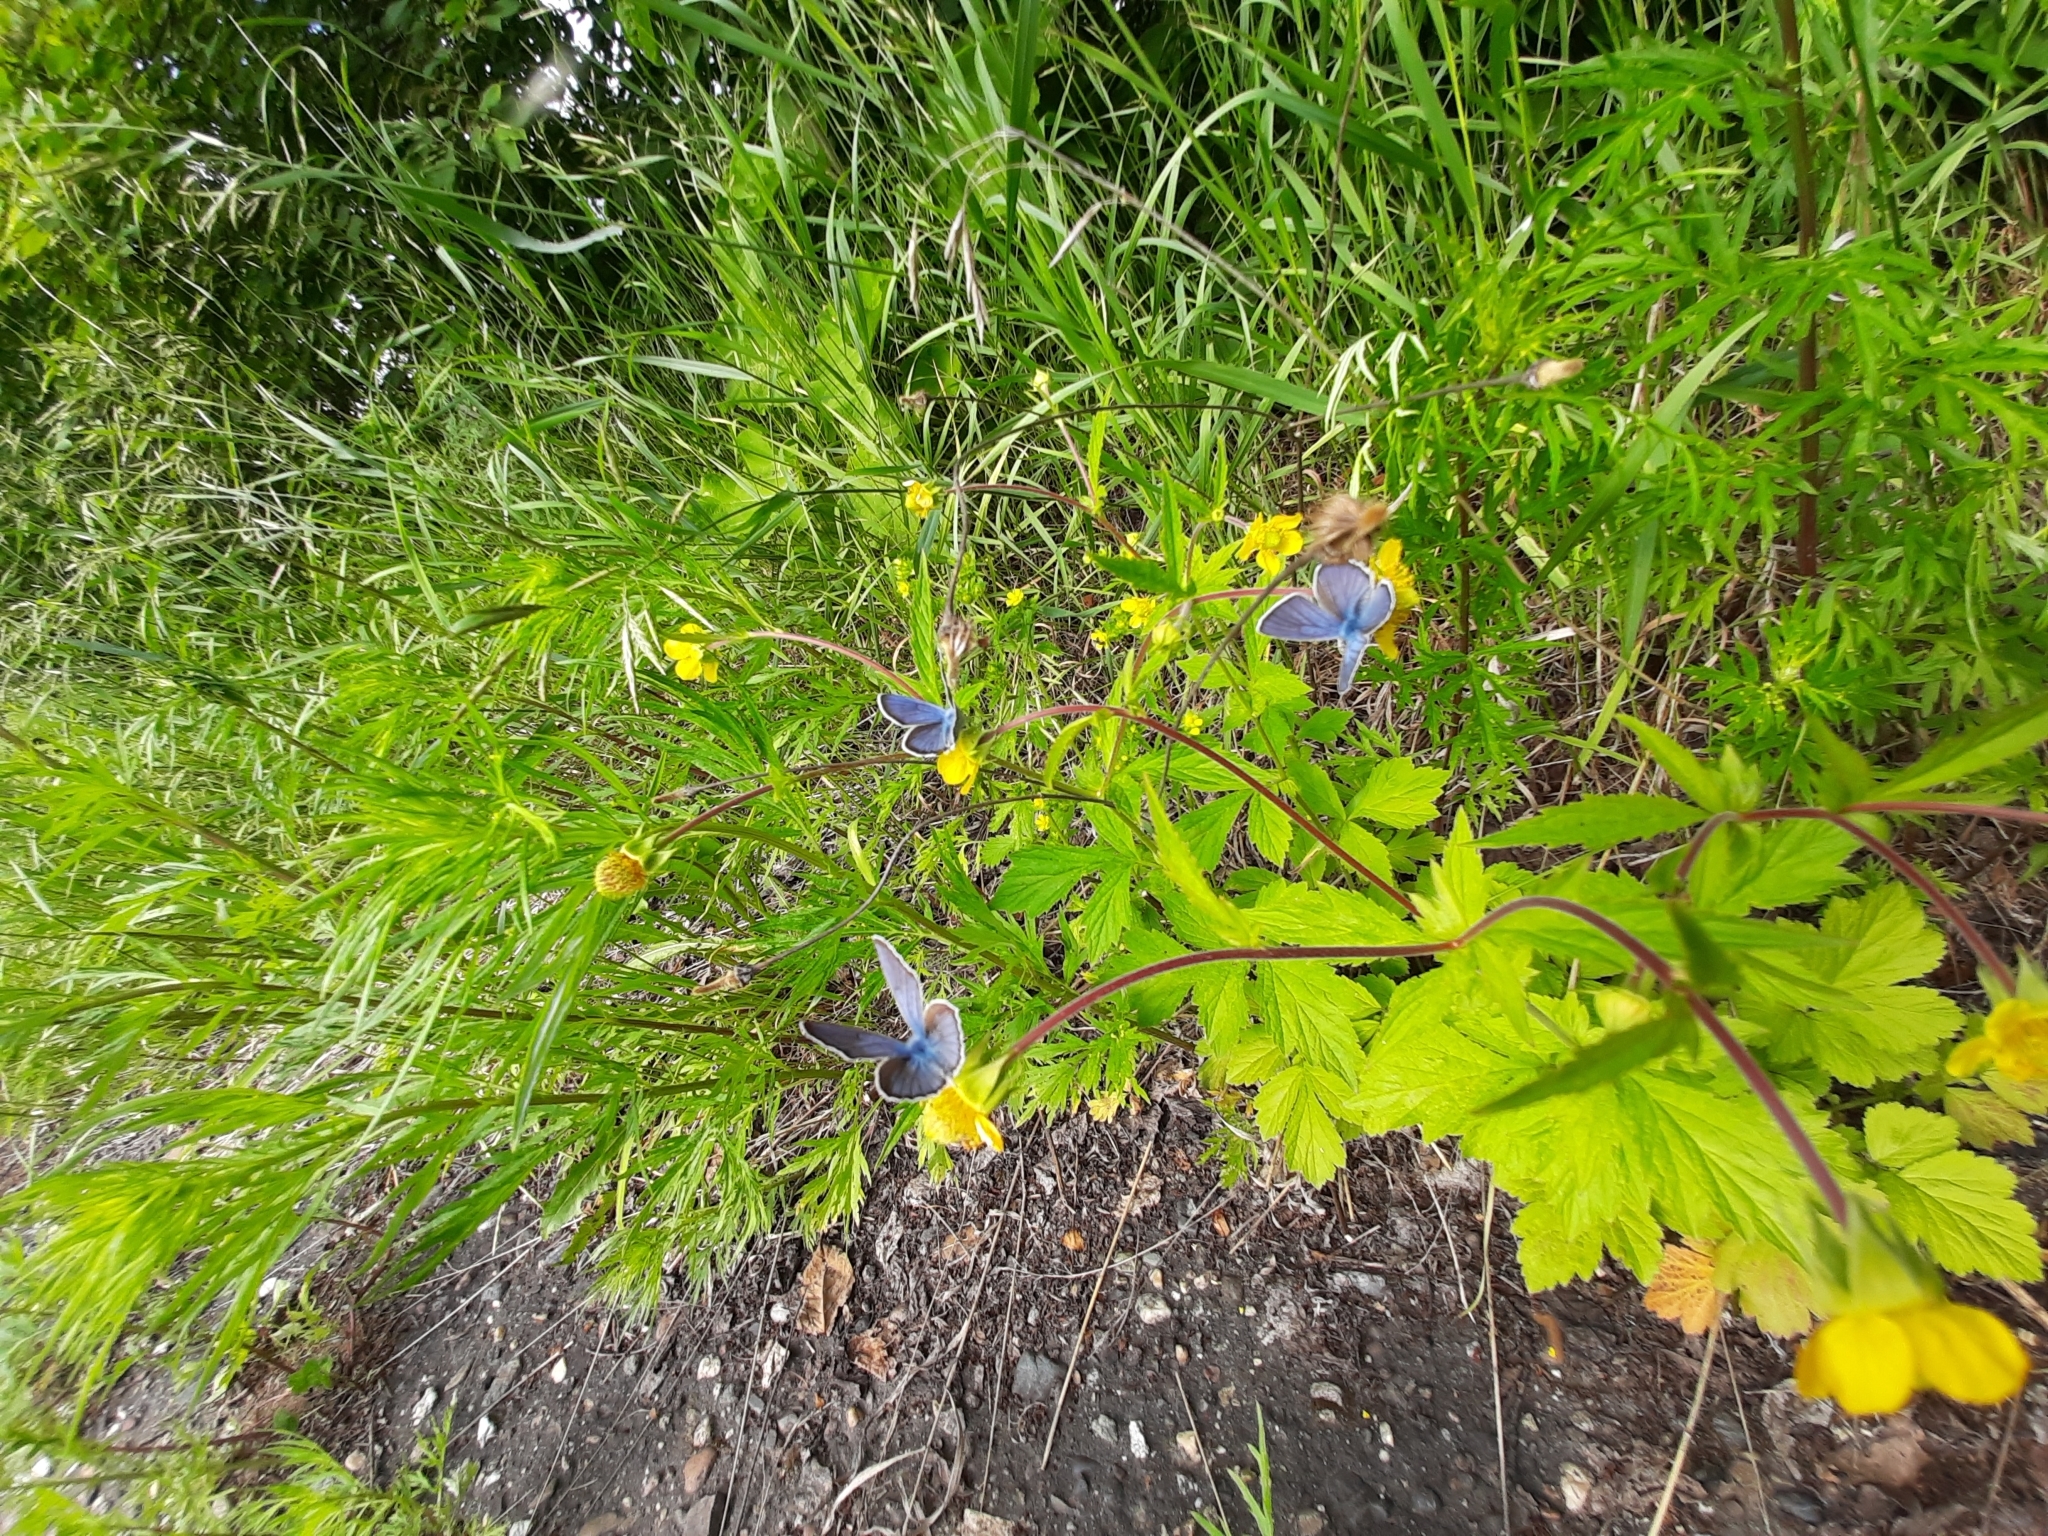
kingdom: Animalia
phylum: Arthropoda
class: Insecta
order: Lepidoptera
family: Lycaenidae
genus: Cyaniris
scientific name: Cyaniris semiargus
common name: Mazarine blue
